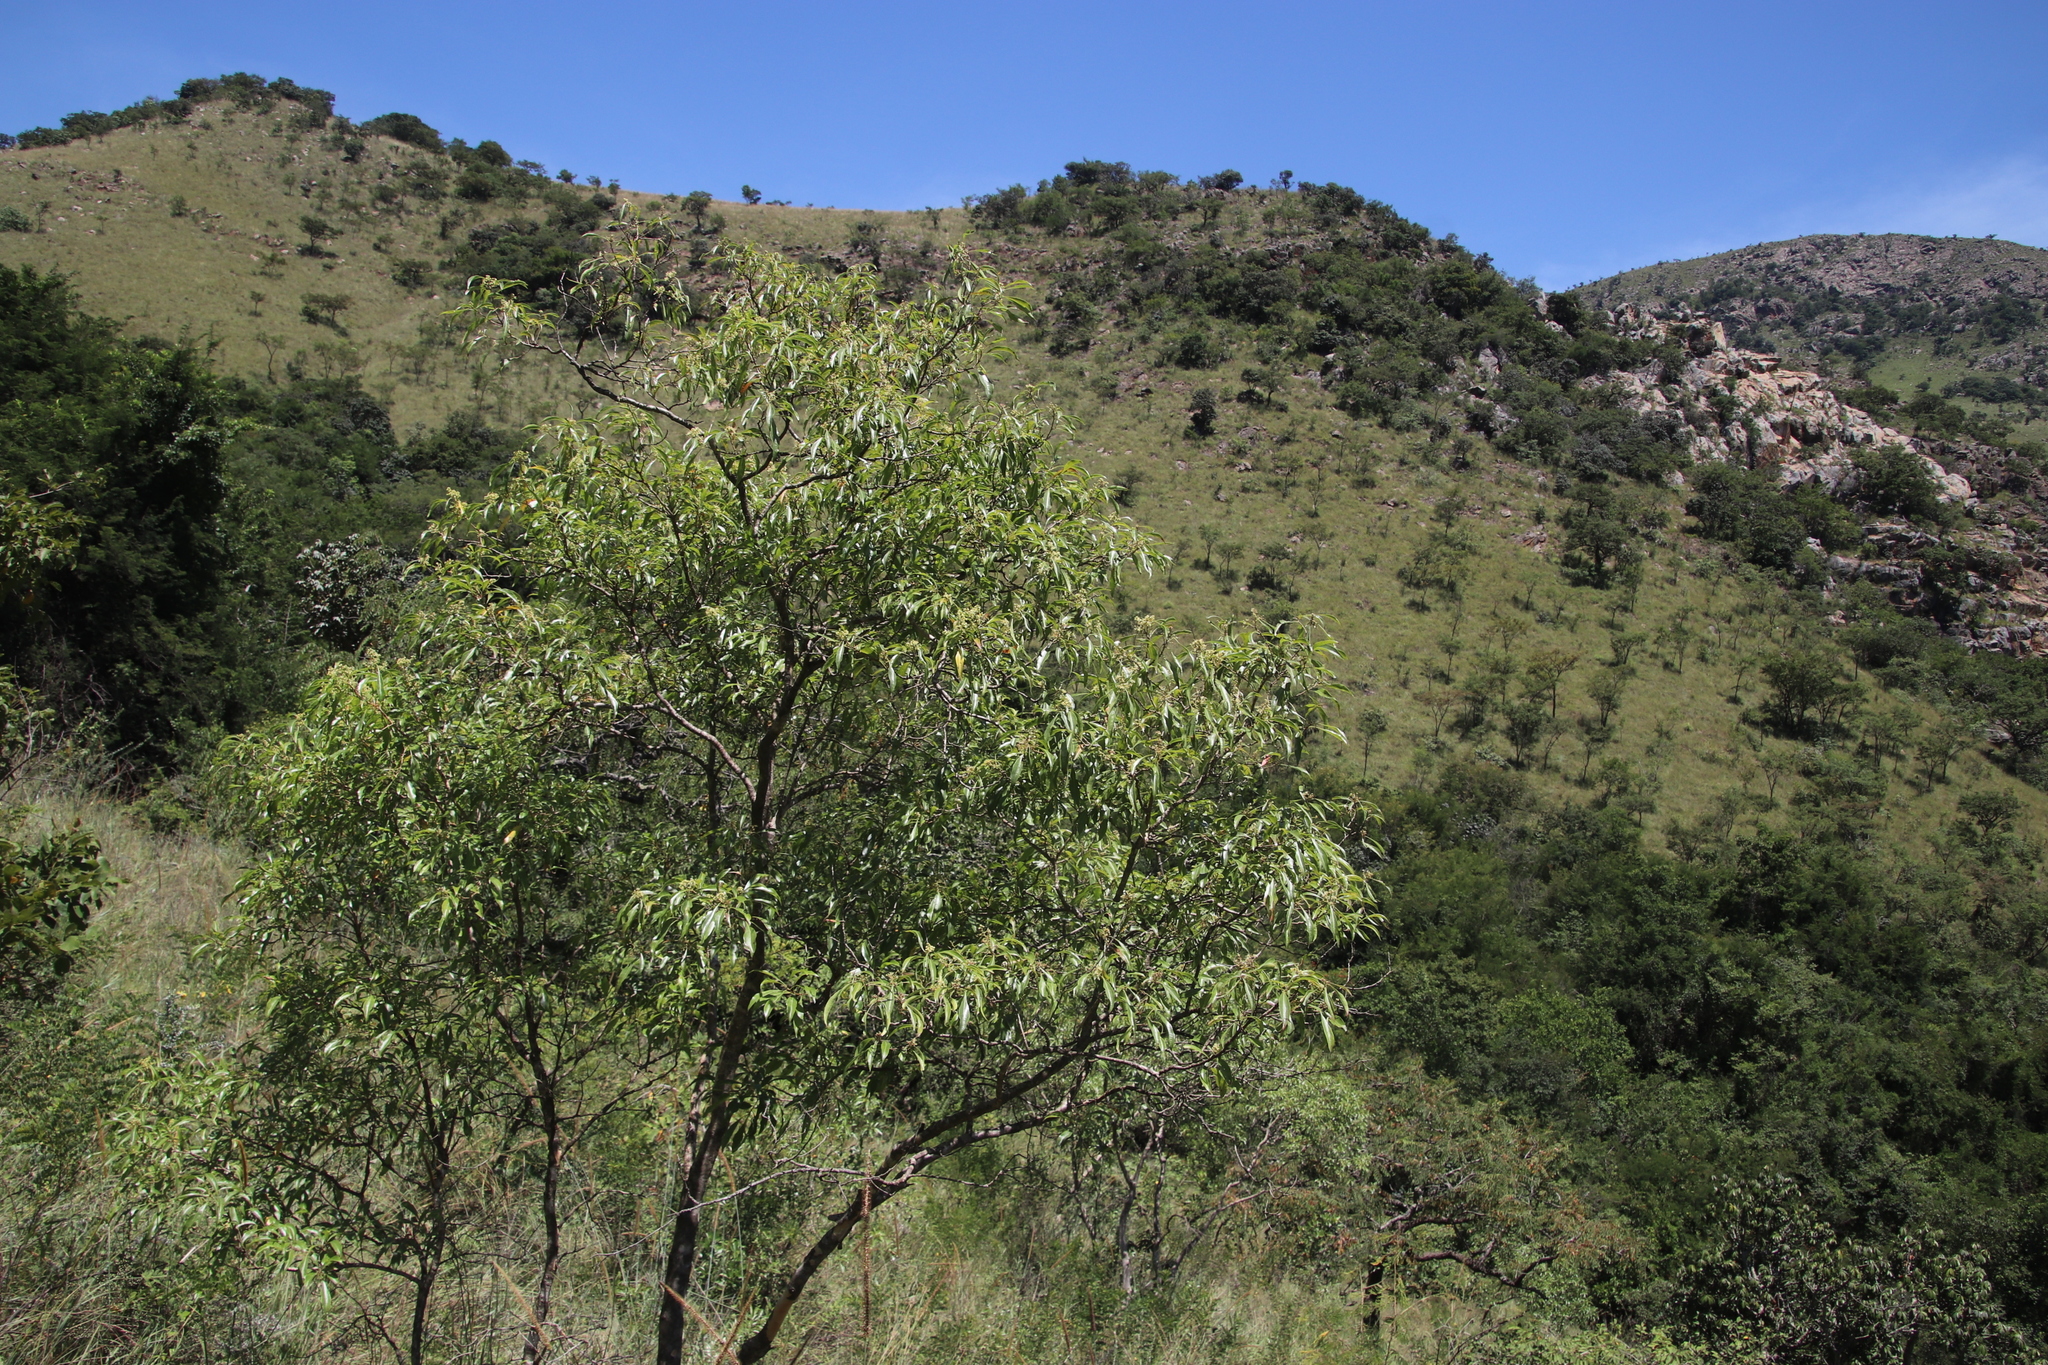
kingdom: Plantae
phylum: Tracheophyta
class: Magnoliopsida
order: Myrtales
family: Myrtaceae
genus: Heteropyxis
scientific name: Heteropyxis natalensis
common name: Lavender tree
